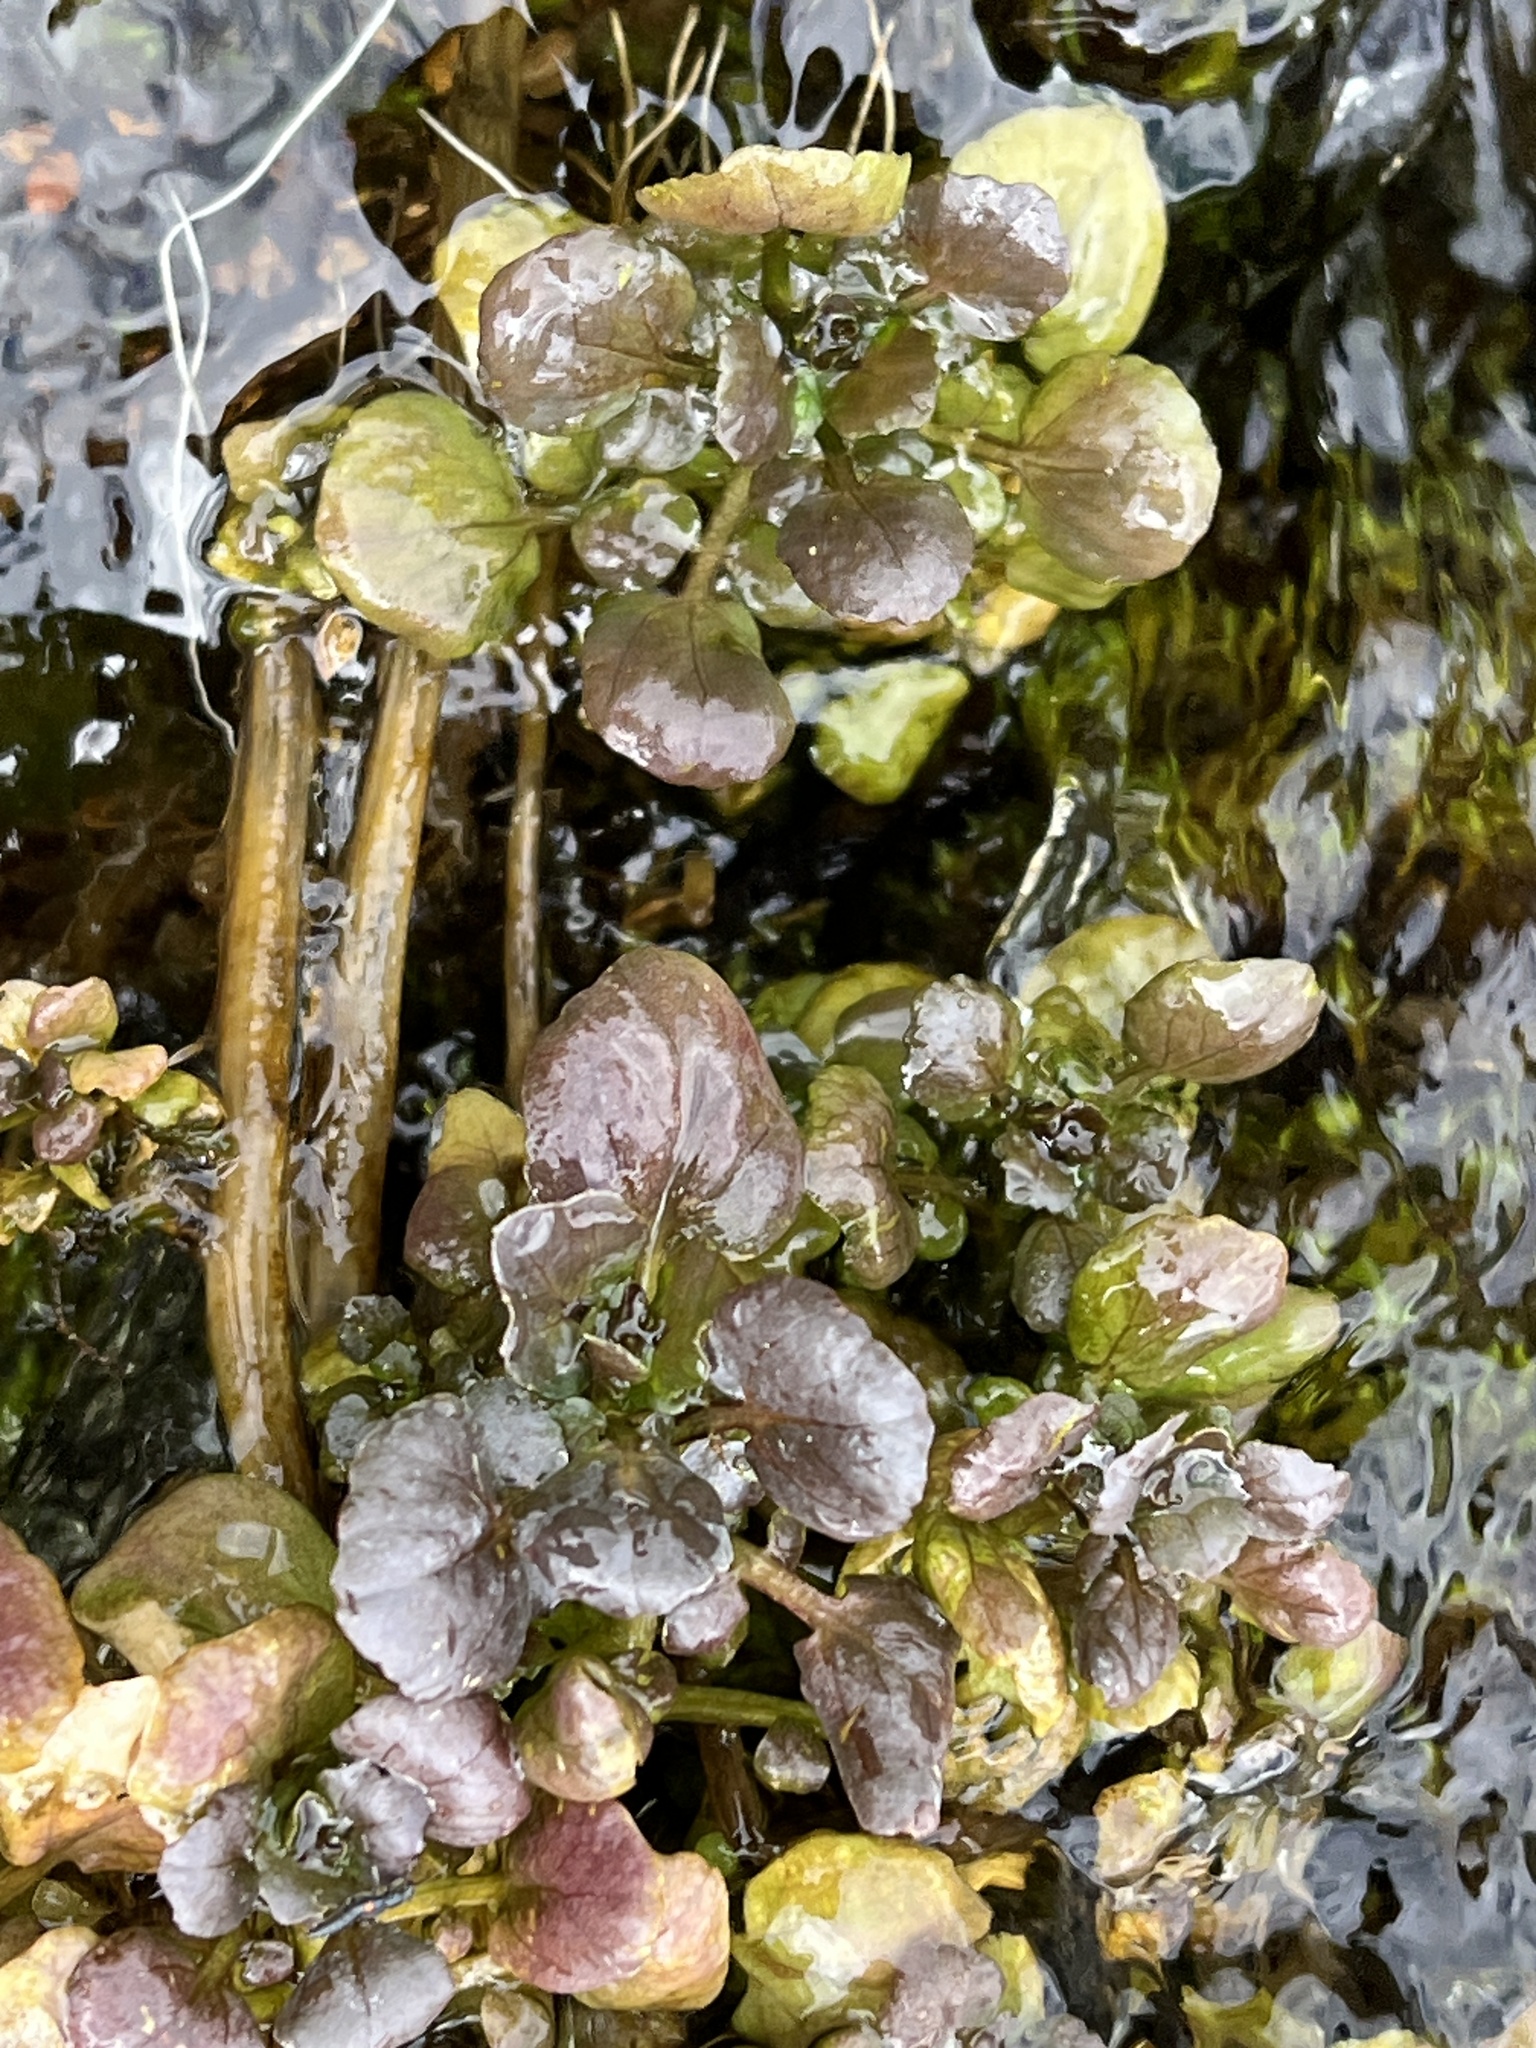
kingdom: Plantae
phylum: Tracheophyta
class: Magnoliopsida
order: Brassicales
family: Brassicaceae
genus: Nasturtium
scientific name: Nasturtium officinale
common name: Watercress
